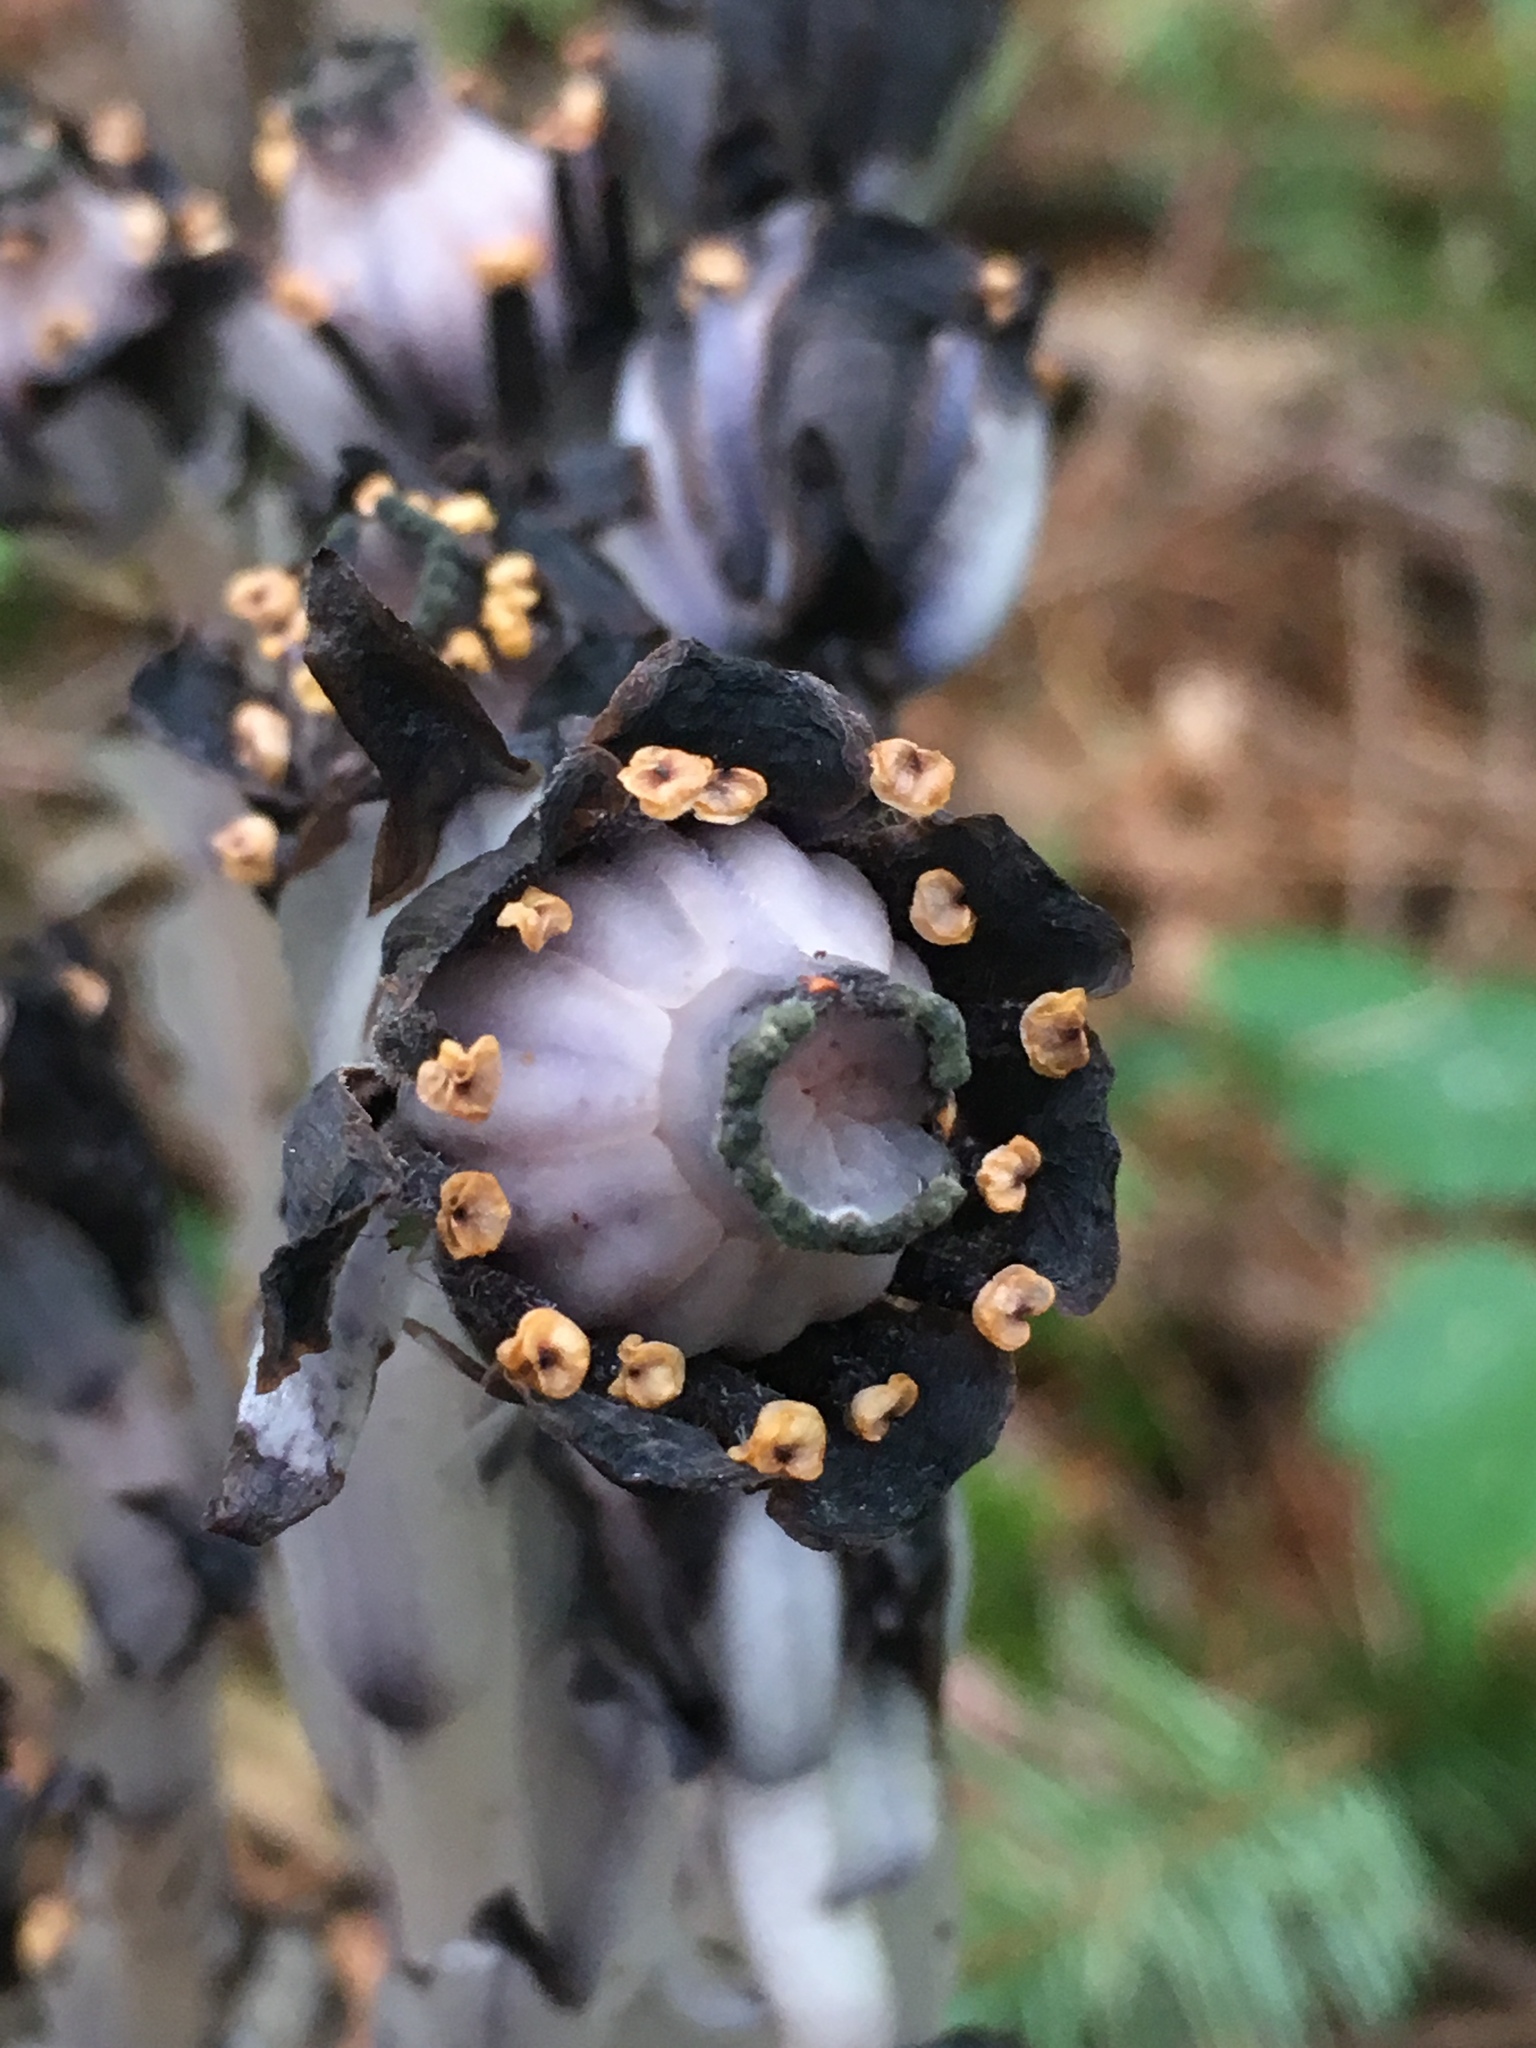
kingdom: Plantae
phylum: Tracheophyta
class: Magnoliopsida
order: Ericales
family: Ericaceae
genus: Monotropa
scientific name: Monotropa uniflora
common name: Convulsion root
